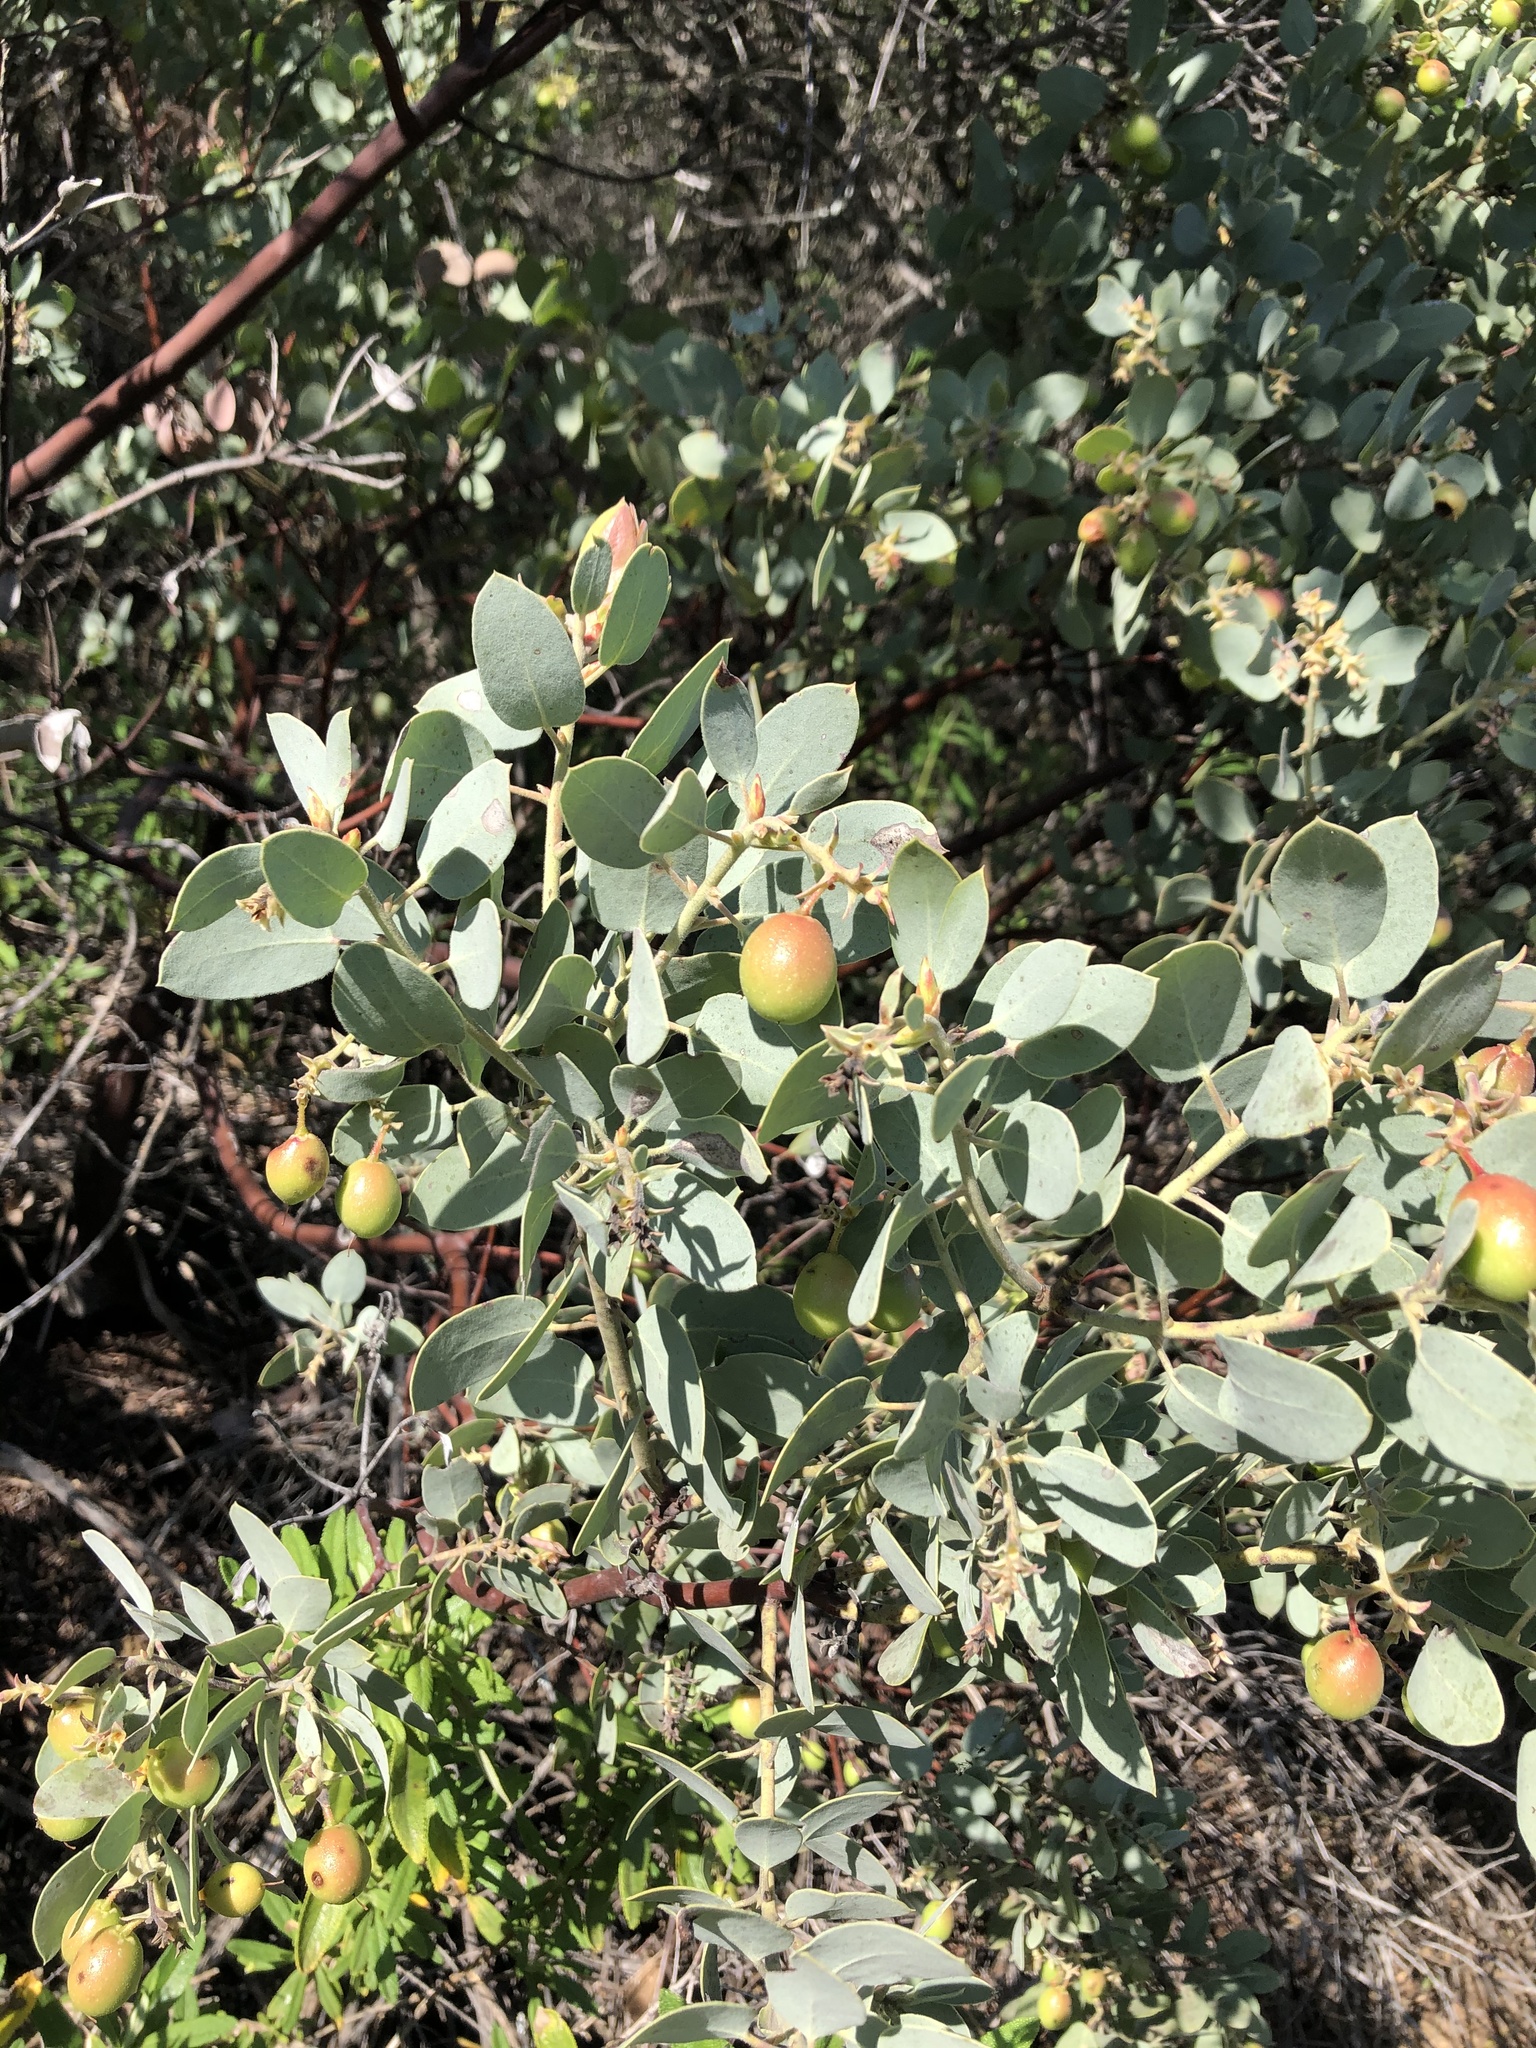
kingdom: Plantae
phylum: Tracheophyta
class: Magnoliopsida
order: Ericales
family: Ericaceae
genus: Arctostaphylos
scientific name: Arctostaphylos glauca
